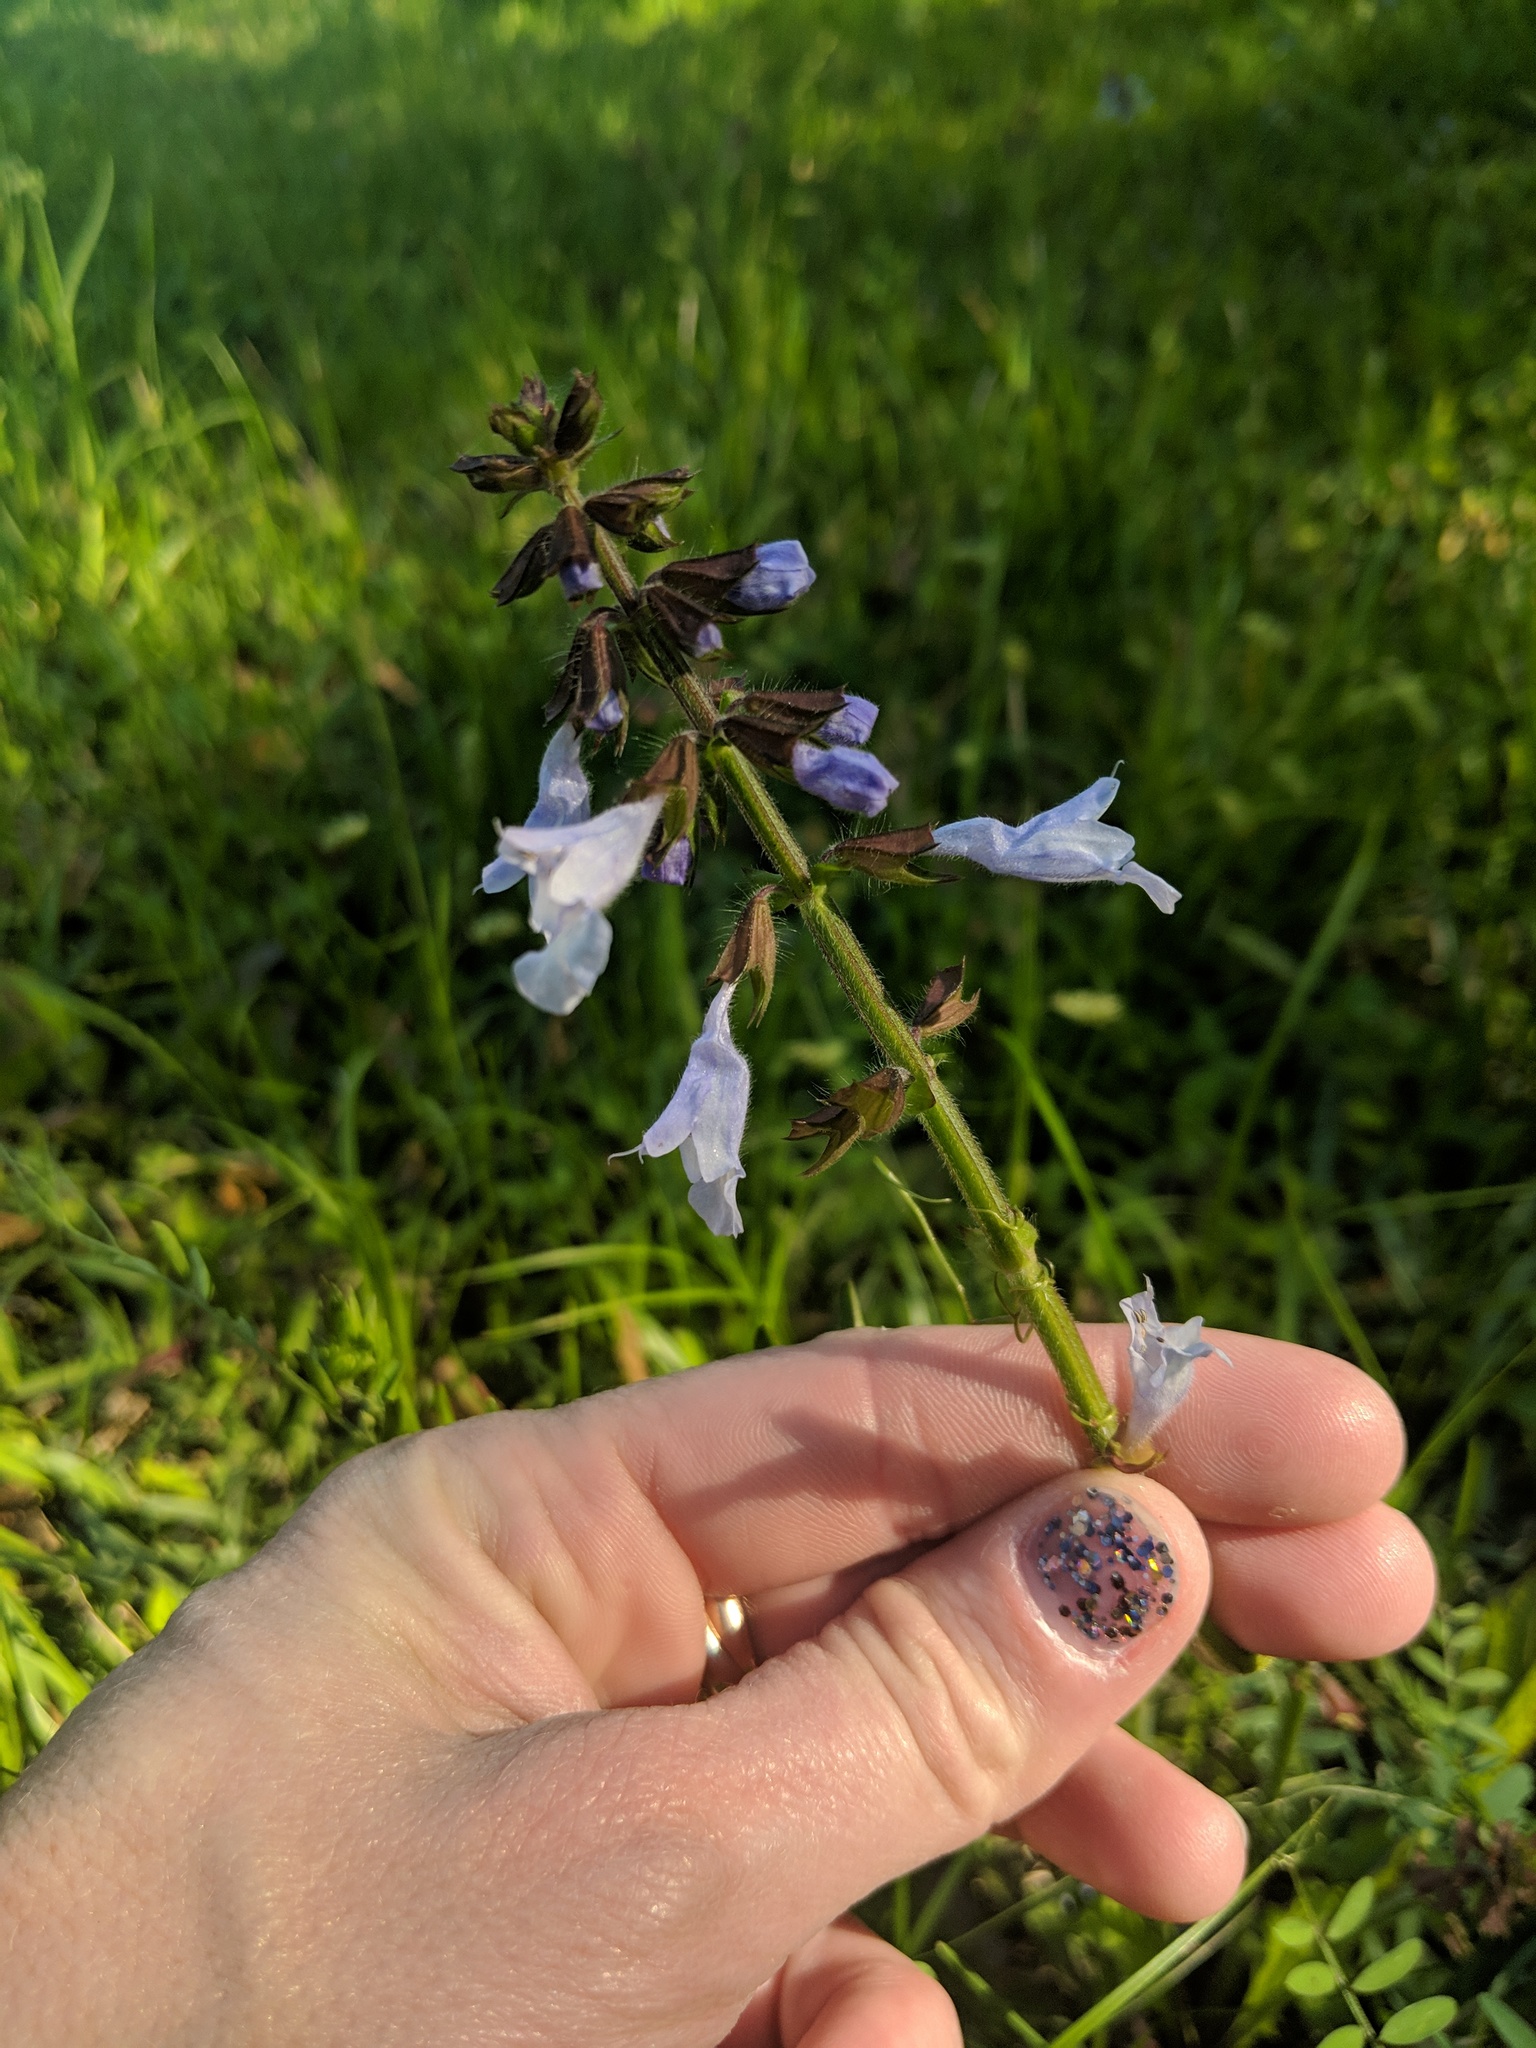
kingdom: Plantae
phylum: Tracheophyta
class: Magnoliopsida
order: Lamiales
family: Lamiaceae
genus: Salvia
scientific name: Salvia lyrata
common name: Cancerweed
